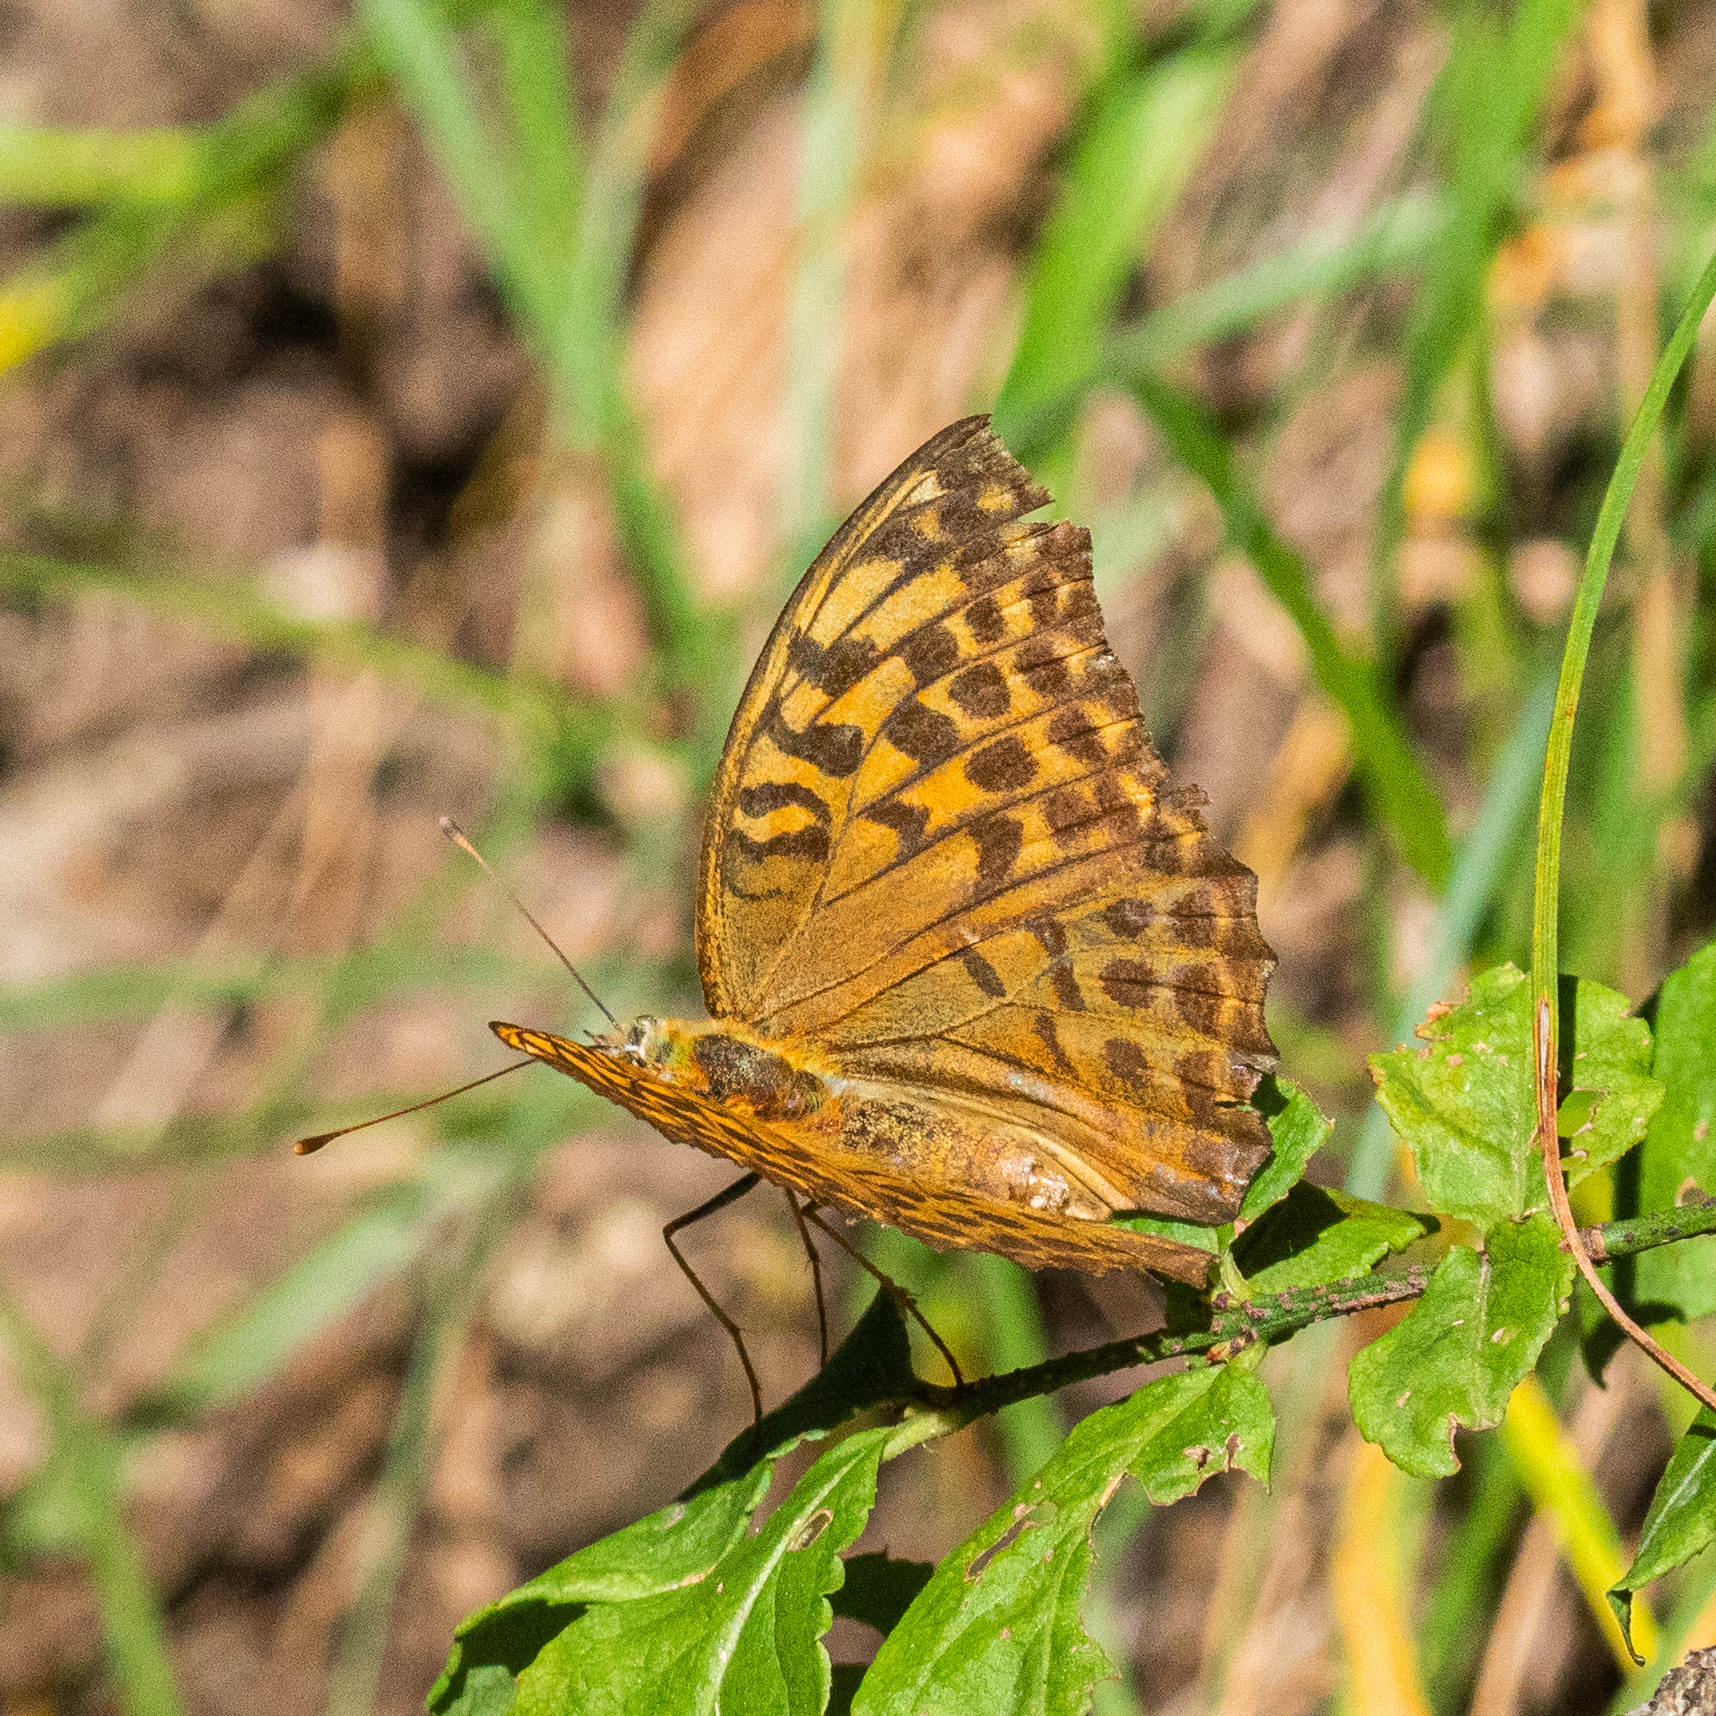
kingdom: Animalia
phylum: Arthropoda
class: Insecta
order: Lepidoptera
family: Nymphalidae
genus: Argynnis
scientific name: Argynnis paphia
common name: Silver-washed fritillary
